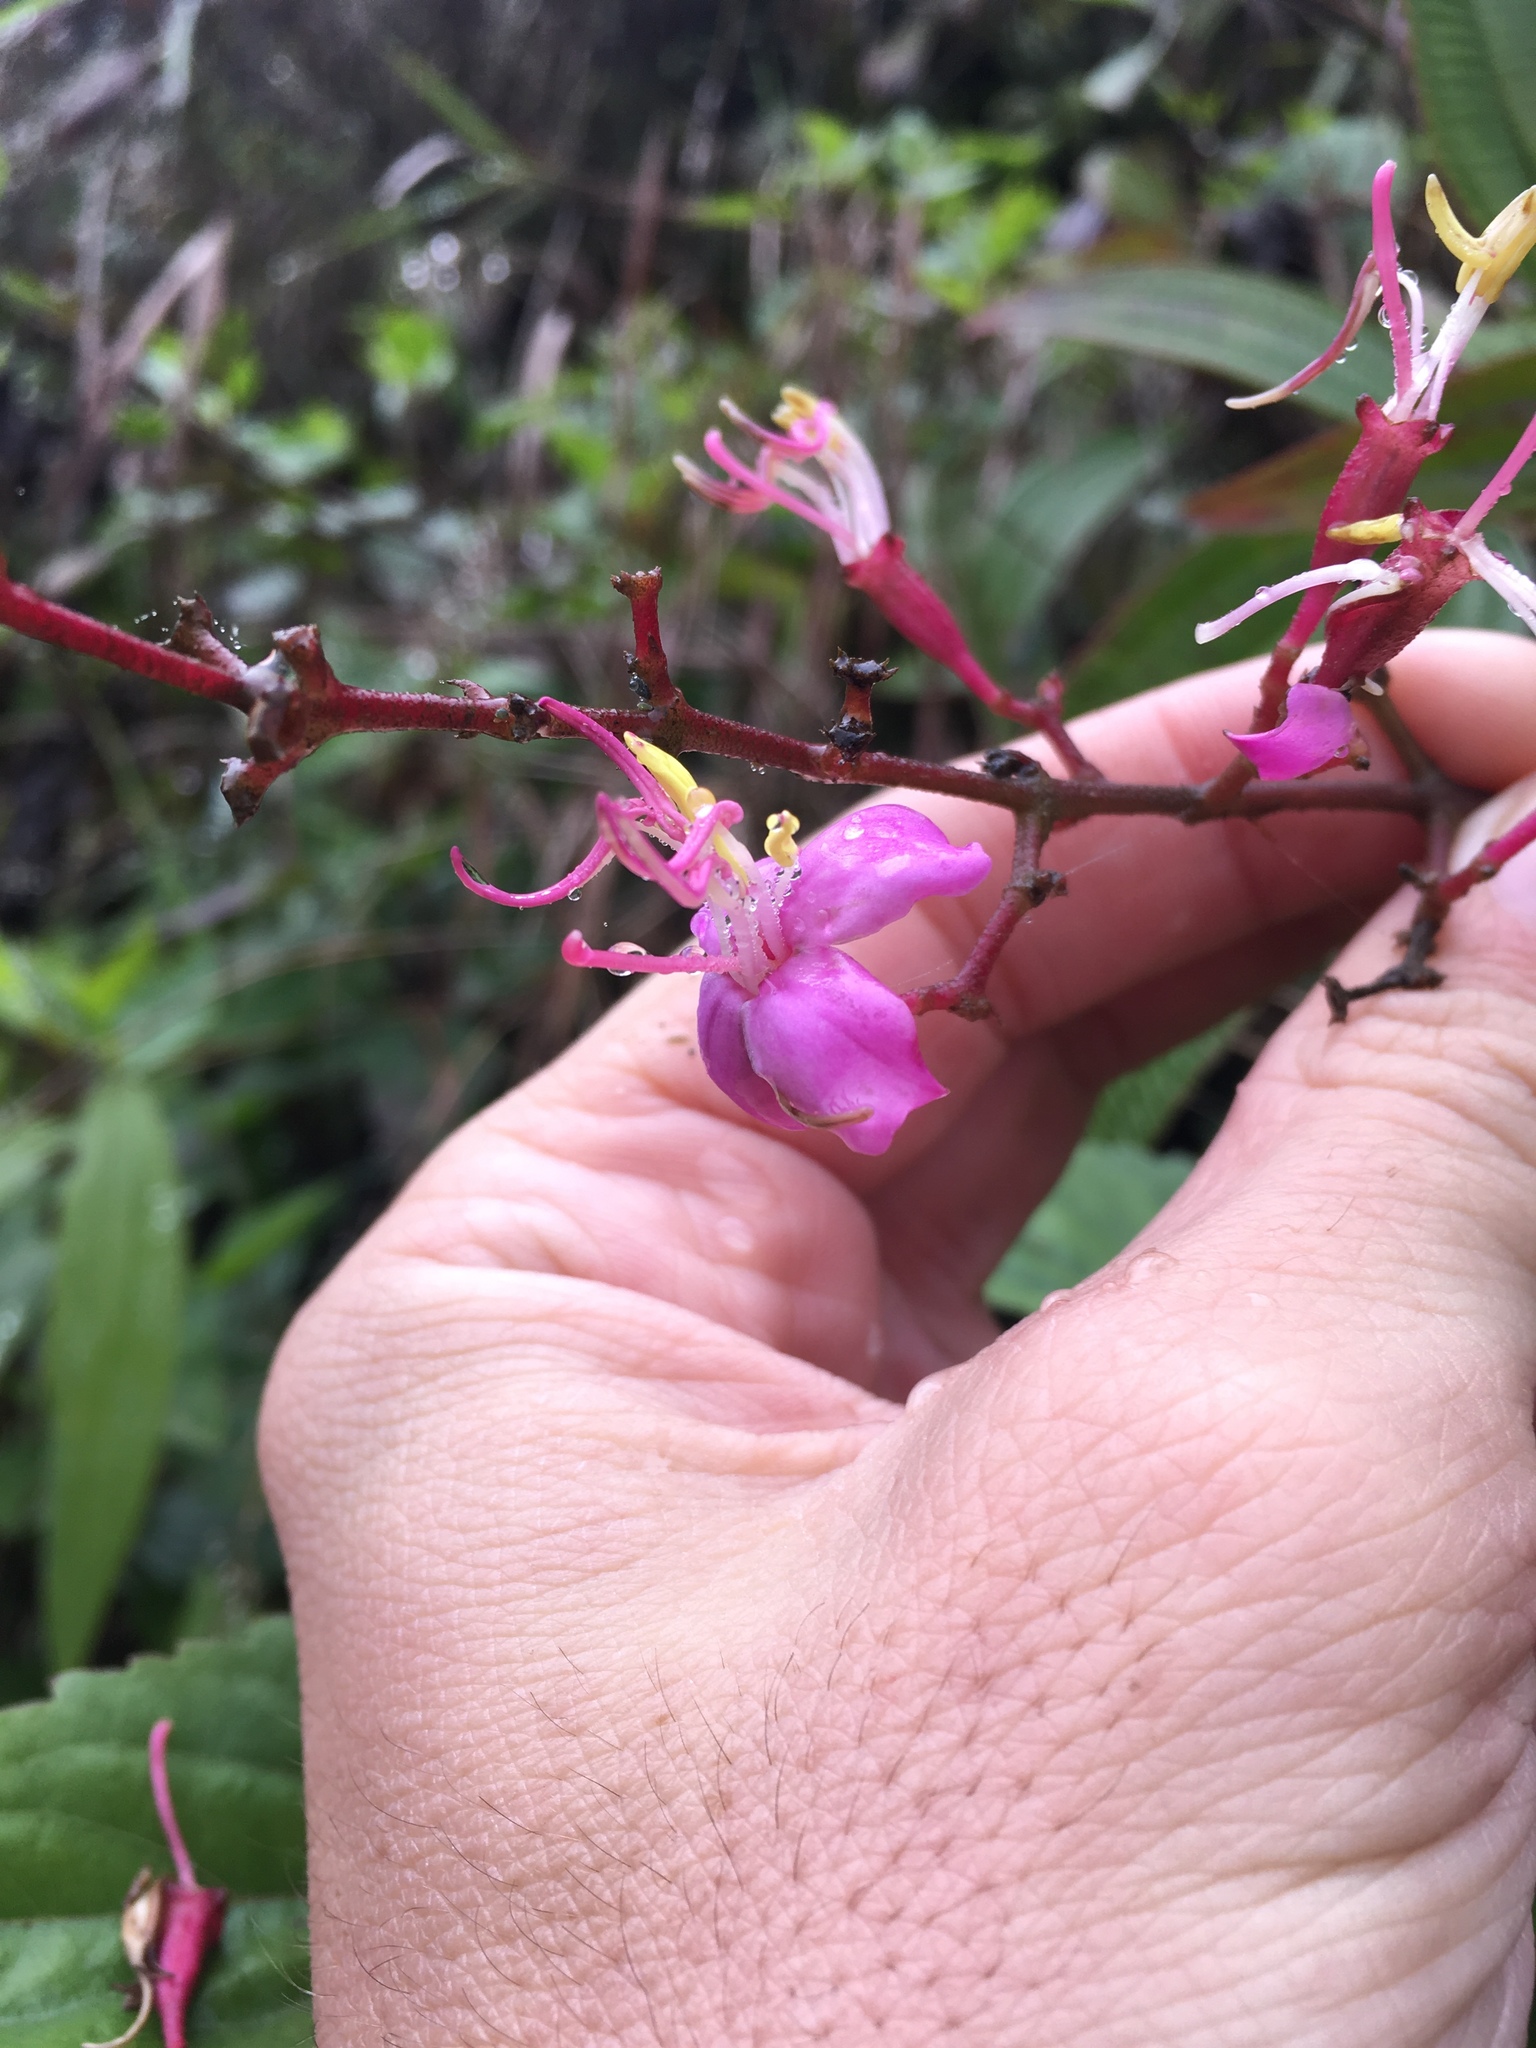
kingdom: Plantae
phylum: Tracheophyta
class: Magnoliopsida
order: Myrtales
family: Melastomataceae
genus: Oxyspora
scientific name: Oxyspora paniculata
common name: Bristletips
